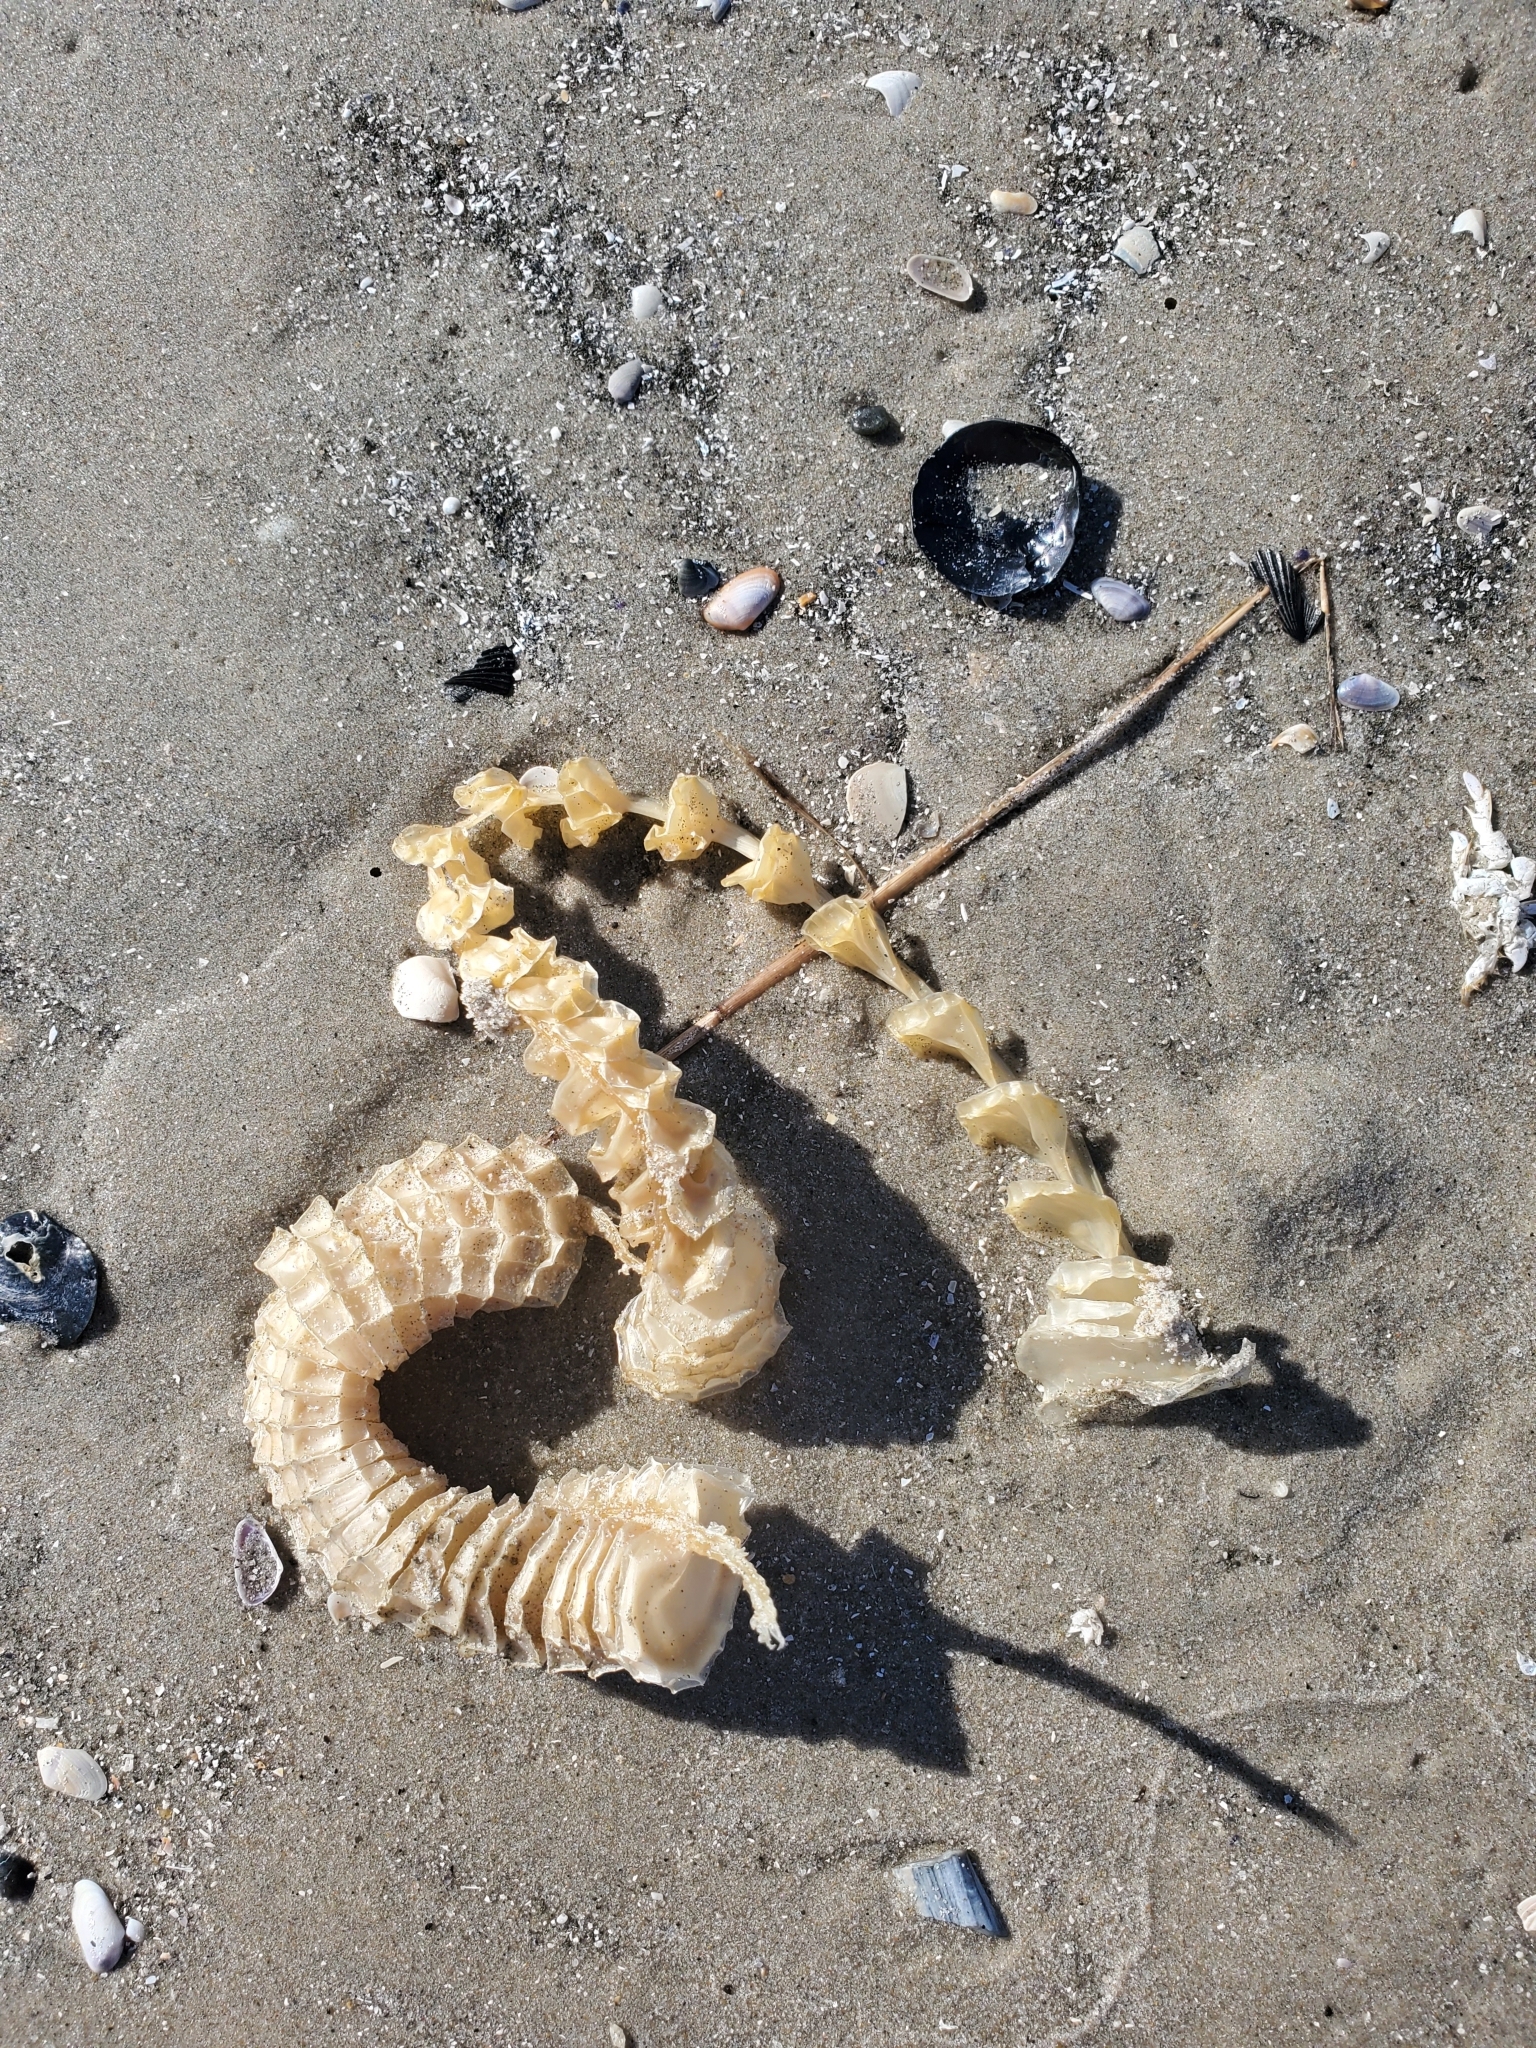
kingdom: Animalia
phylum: Mollusca
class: Gastropoda
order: Neogastropoda
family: Busyconidae
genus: Busycon
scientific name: Busycon carica
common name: Knobbed whelk
